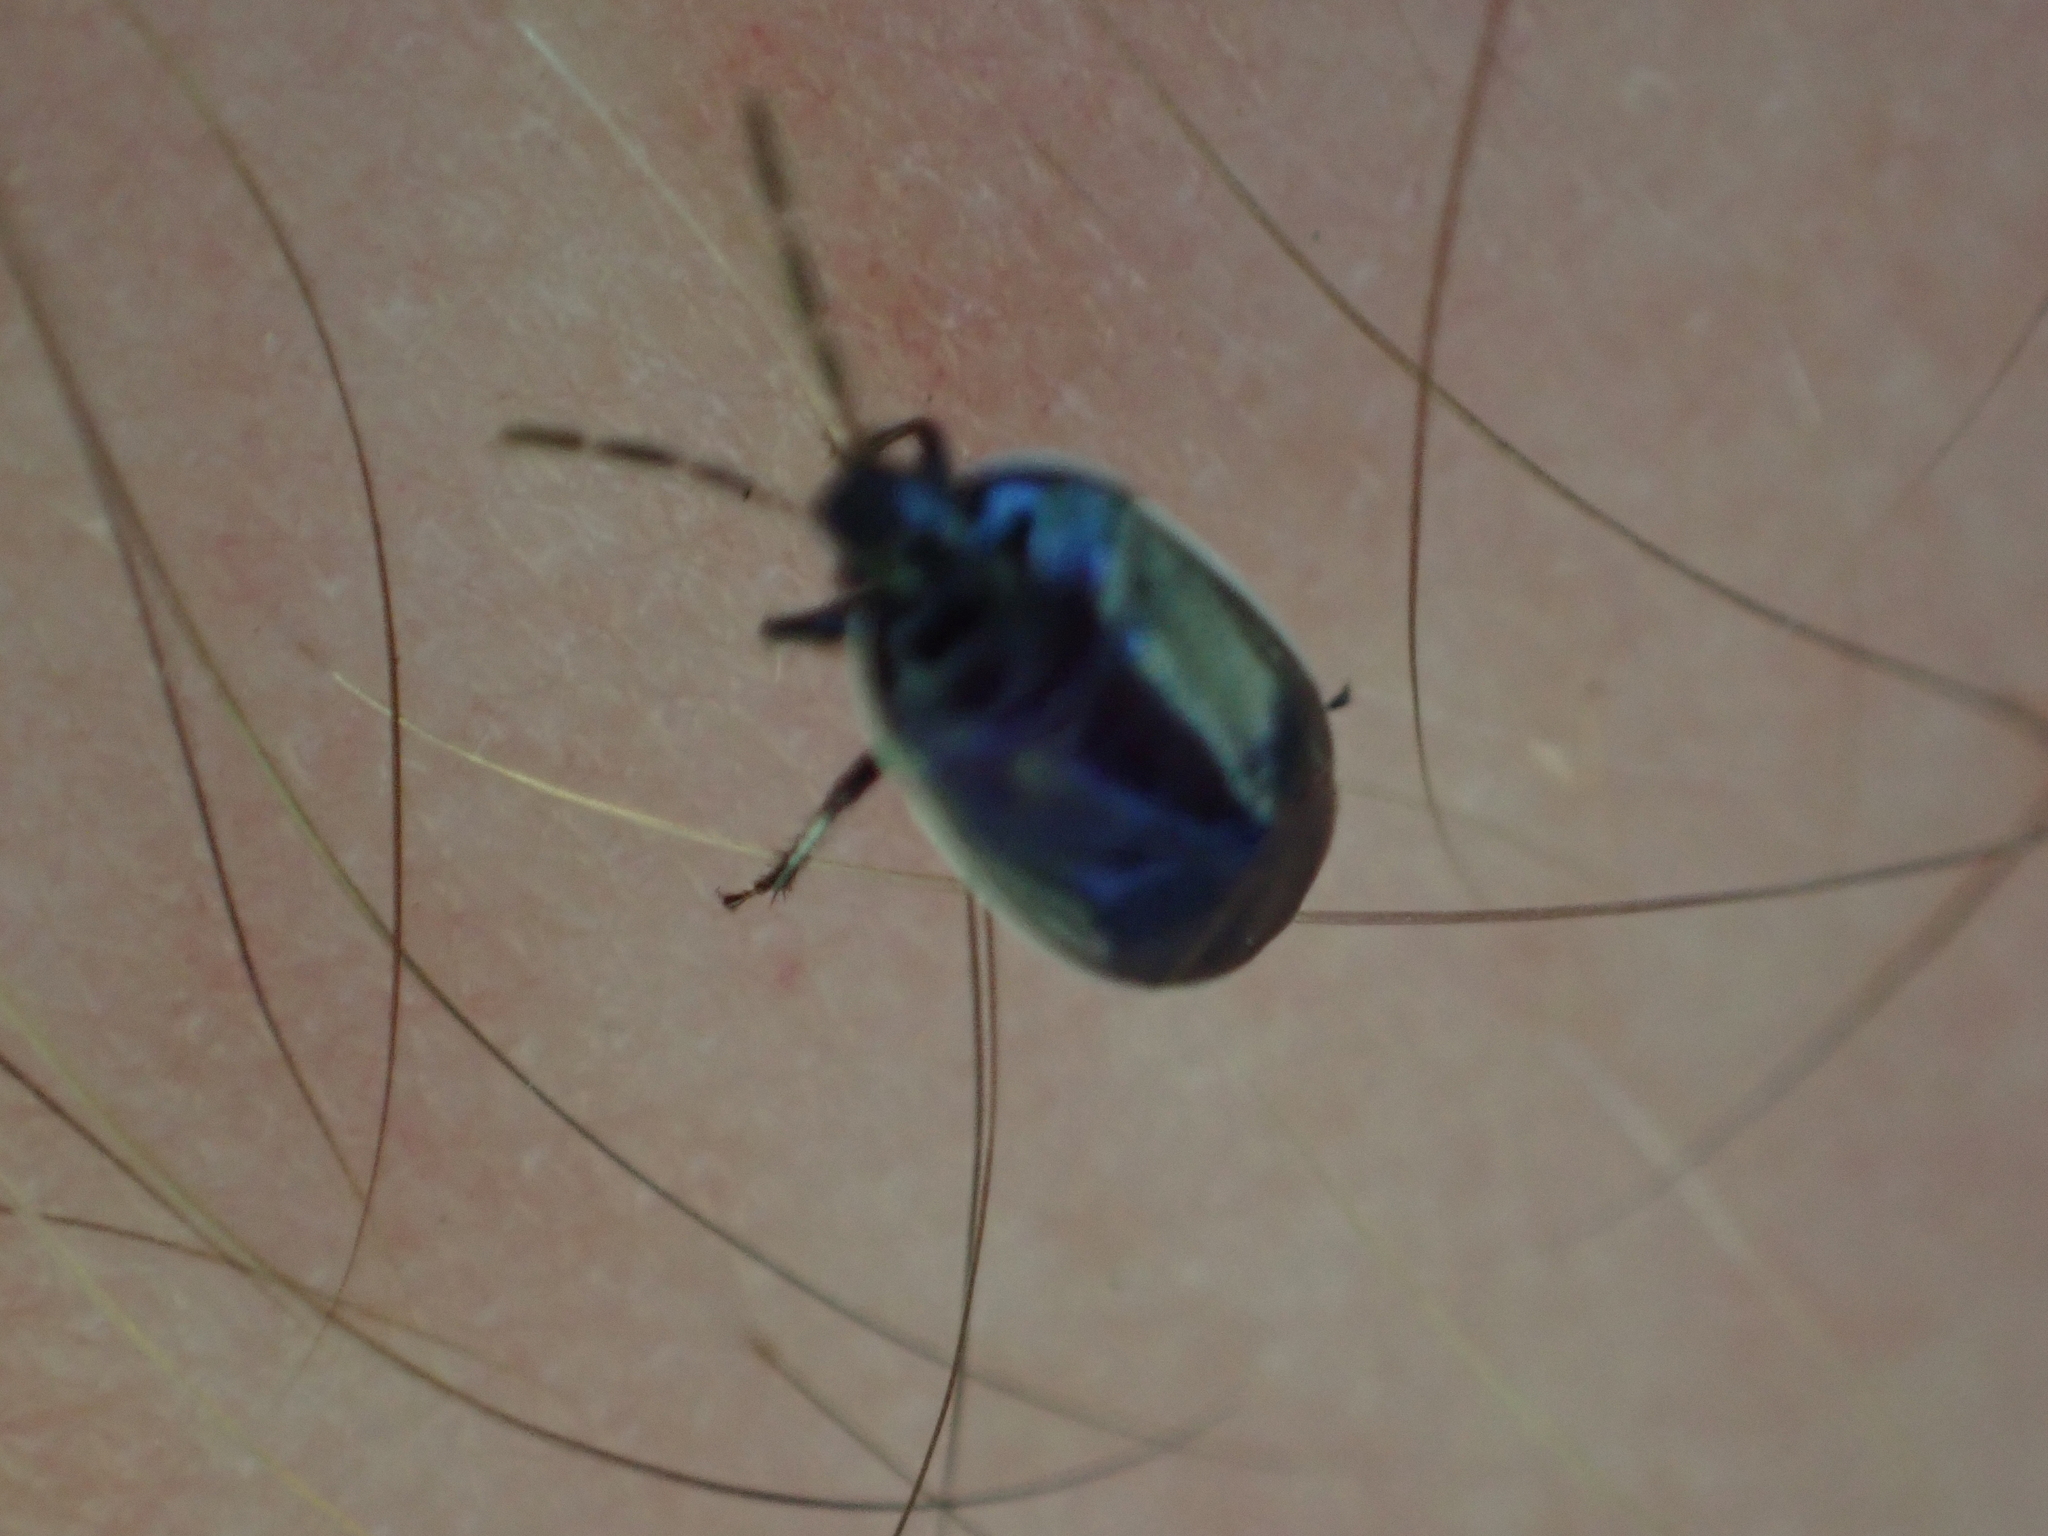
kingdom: Animalia
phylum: Arthropoda
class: Insecta
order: Hemiptera
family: Cydnidae
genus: Sehirus
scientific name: Sehirus cinctus
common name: White-margined burrower bug
